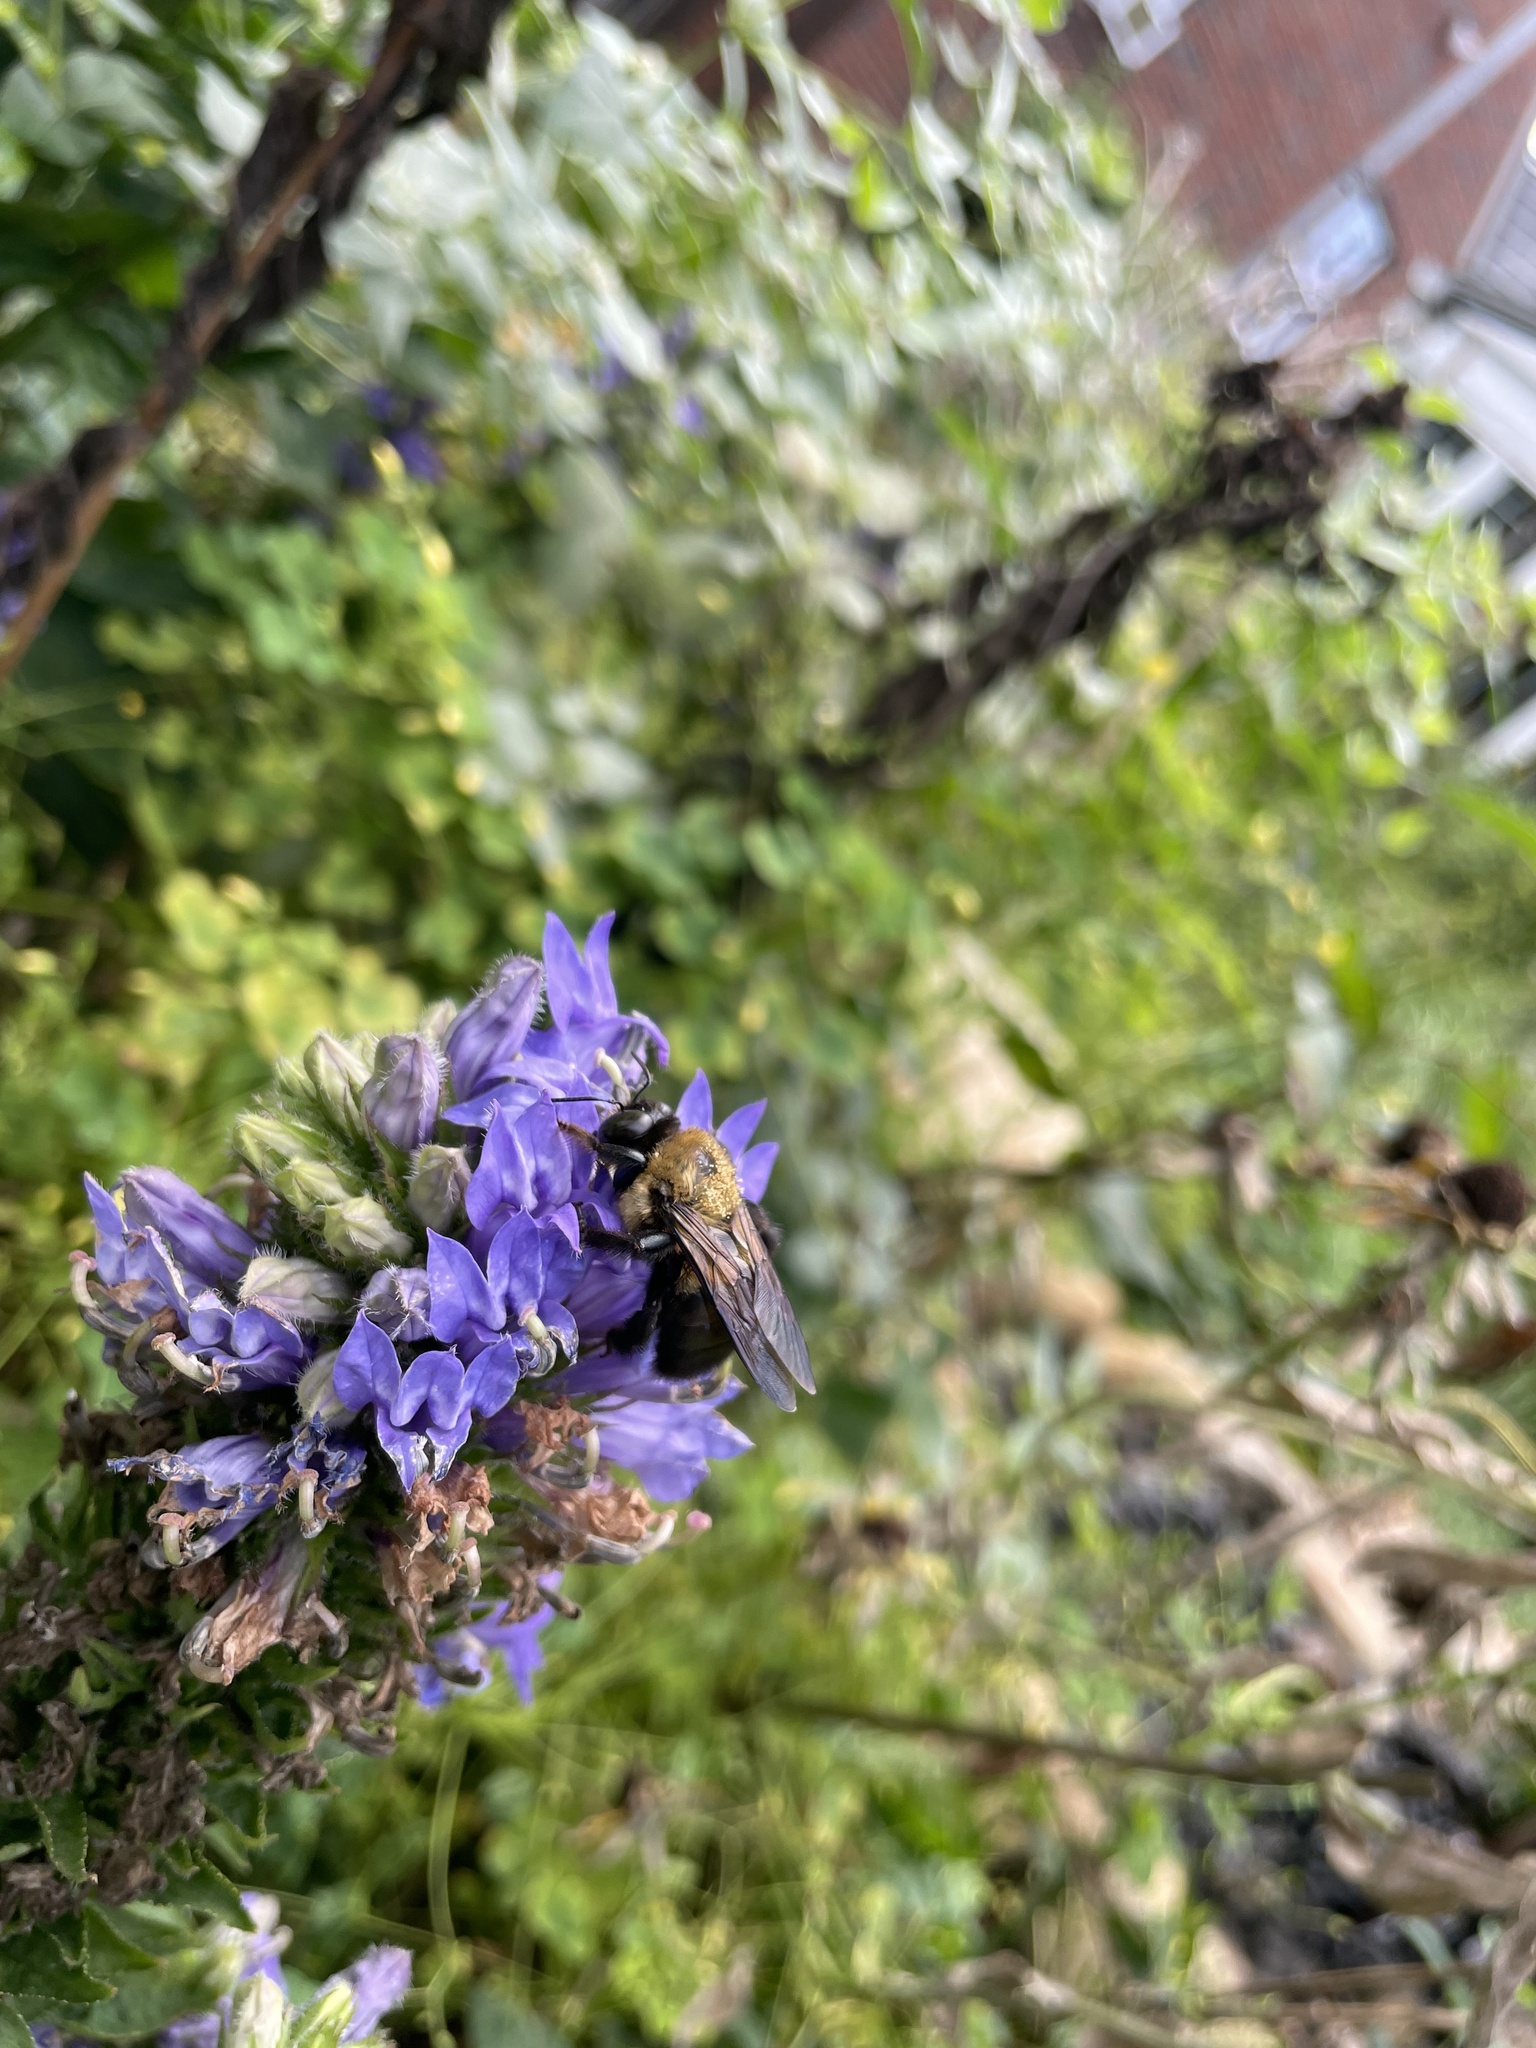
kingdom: Animalia
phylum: Arthropoda
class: Insecta
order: Hymenoptera
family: Apidae
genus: Xylocopa
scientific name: Xylocopa virginica
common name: Carpenter bee
